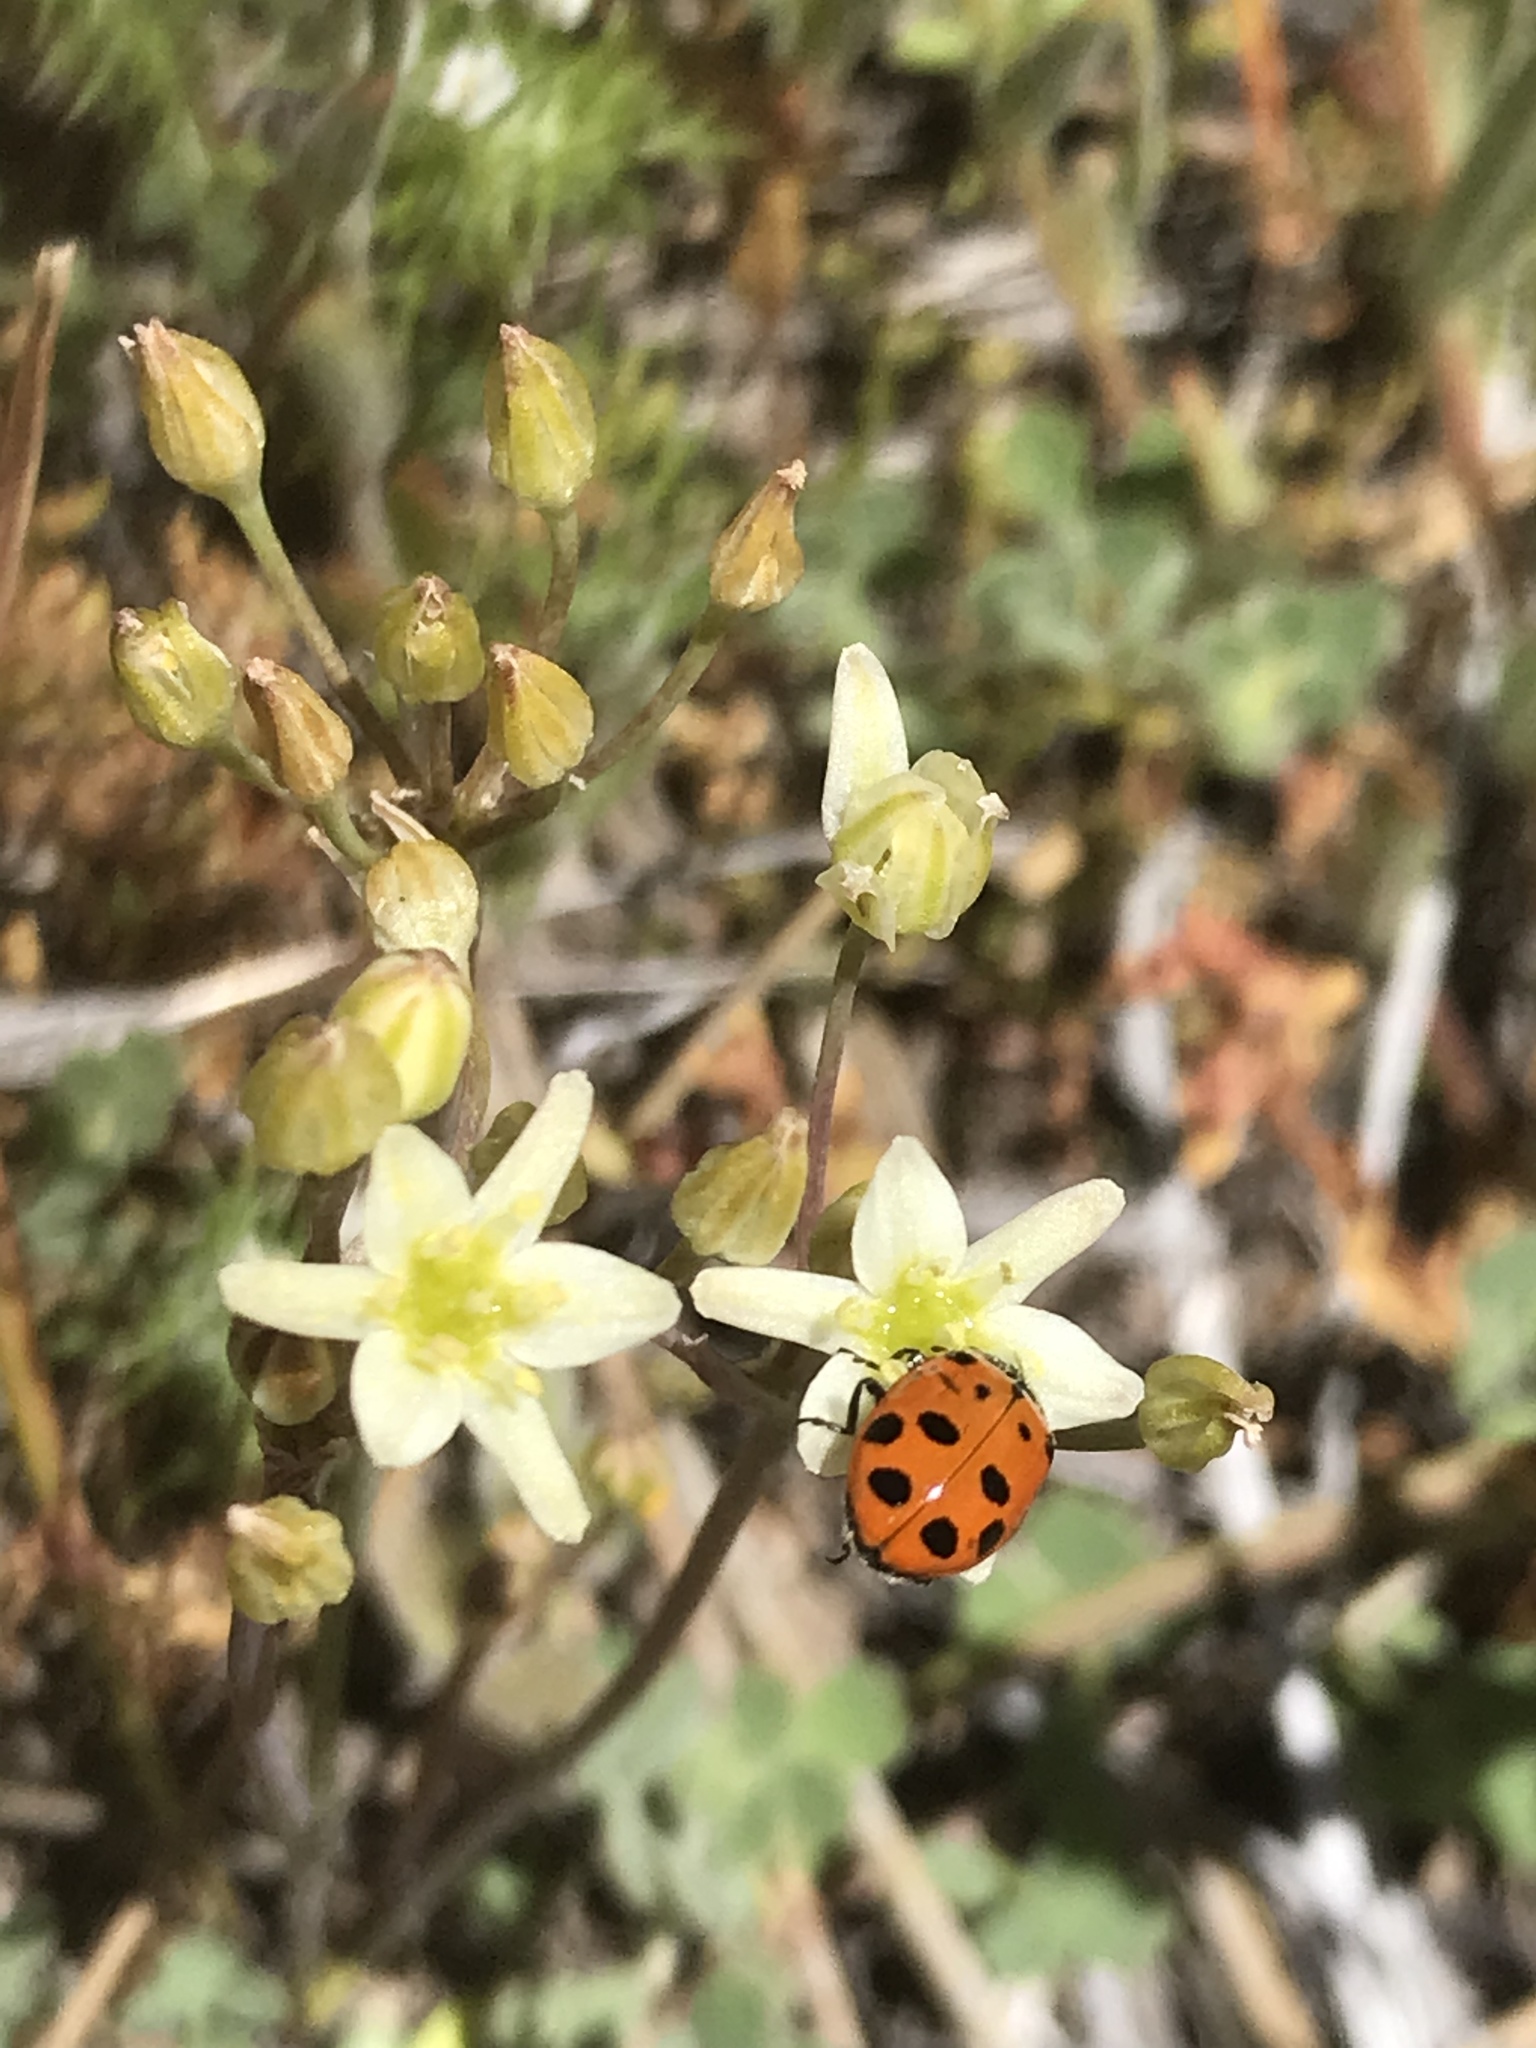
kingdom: Animalia
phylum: Arthropoda
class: Insecta
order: Coleoptera
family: Coccinellidae
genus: Hippodamia
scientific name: Hippodamia convergens
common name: Convergent lady beetle
